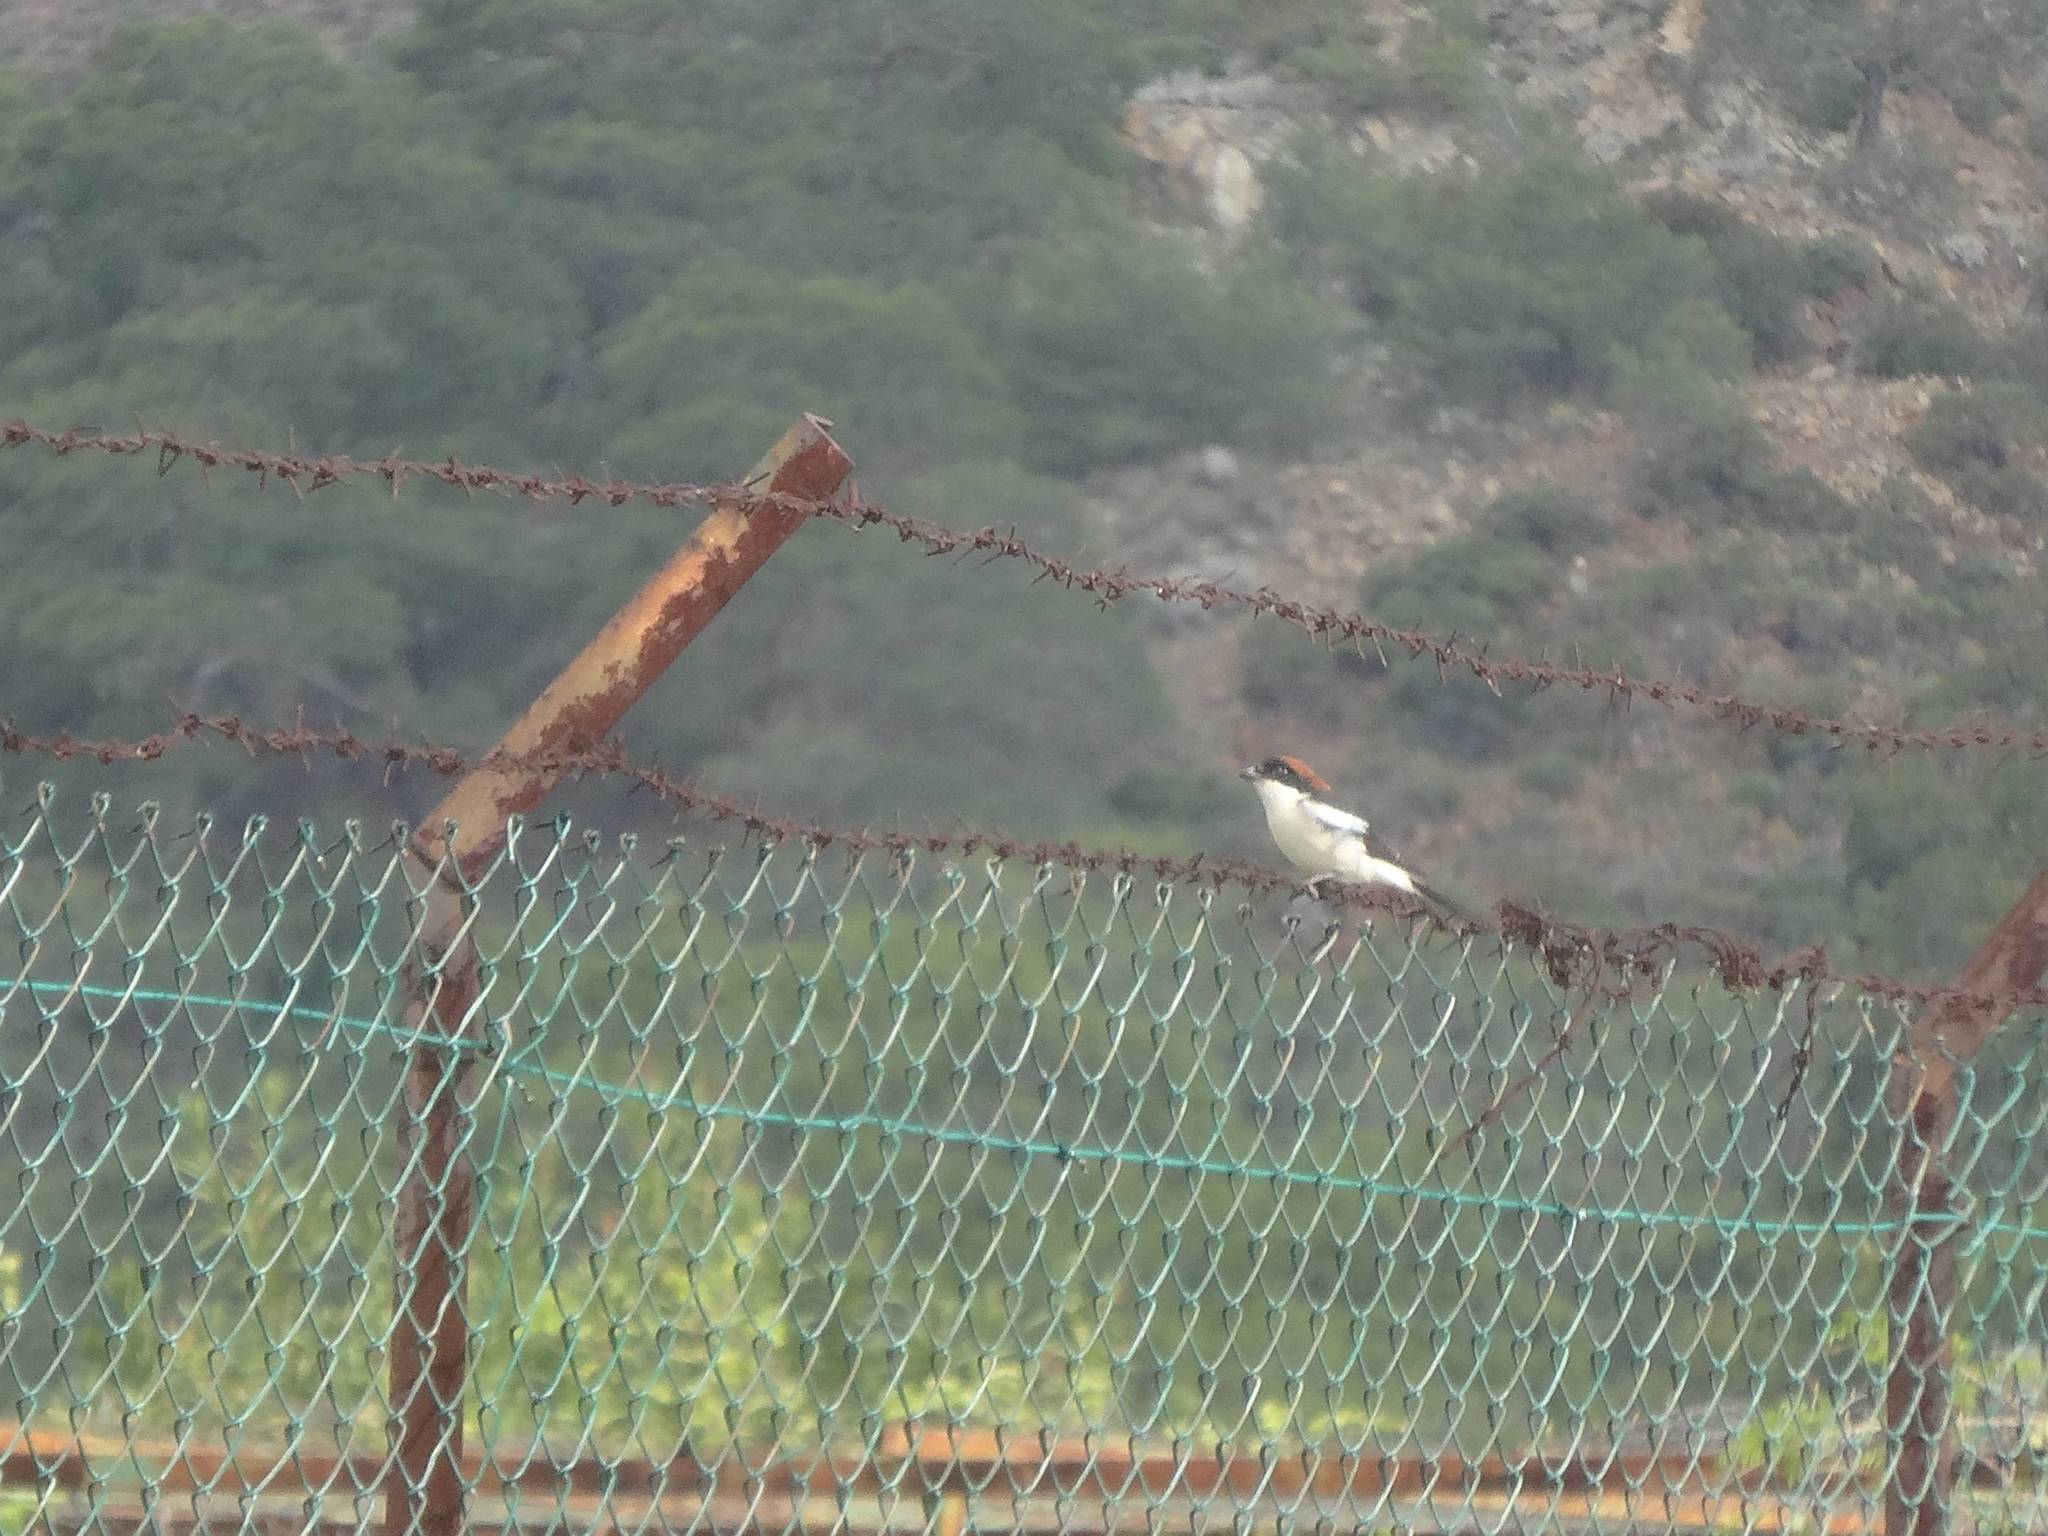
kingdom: Animalia
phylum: Chordata
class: Aves
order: Passeriformes
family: Laniidae
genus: Lanius
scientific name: Lanius senator
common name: Woodchat shrike
